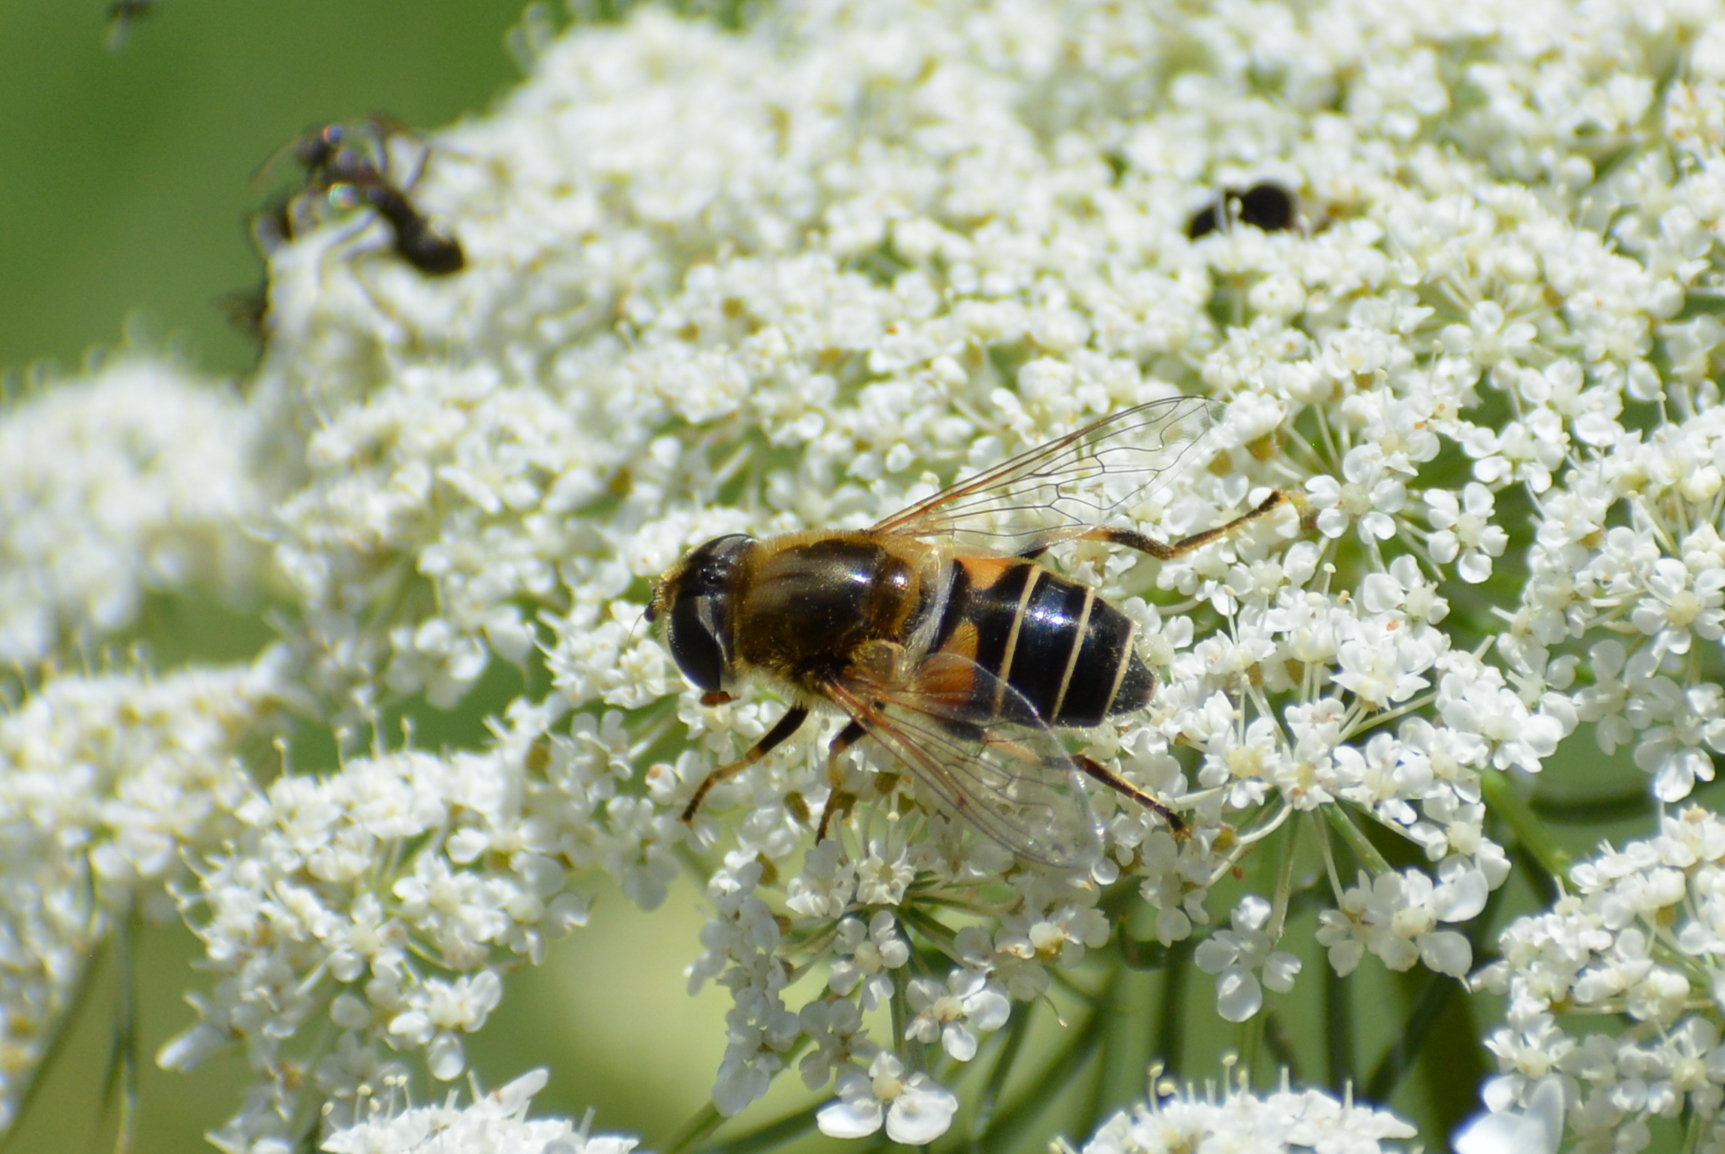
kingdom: Animalia
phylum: Arthropoda
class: Insecta
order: Diptera
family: Syrphidae
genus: Eristalis
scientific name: Eristalis nemorum
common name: Orange-spined drone fly
